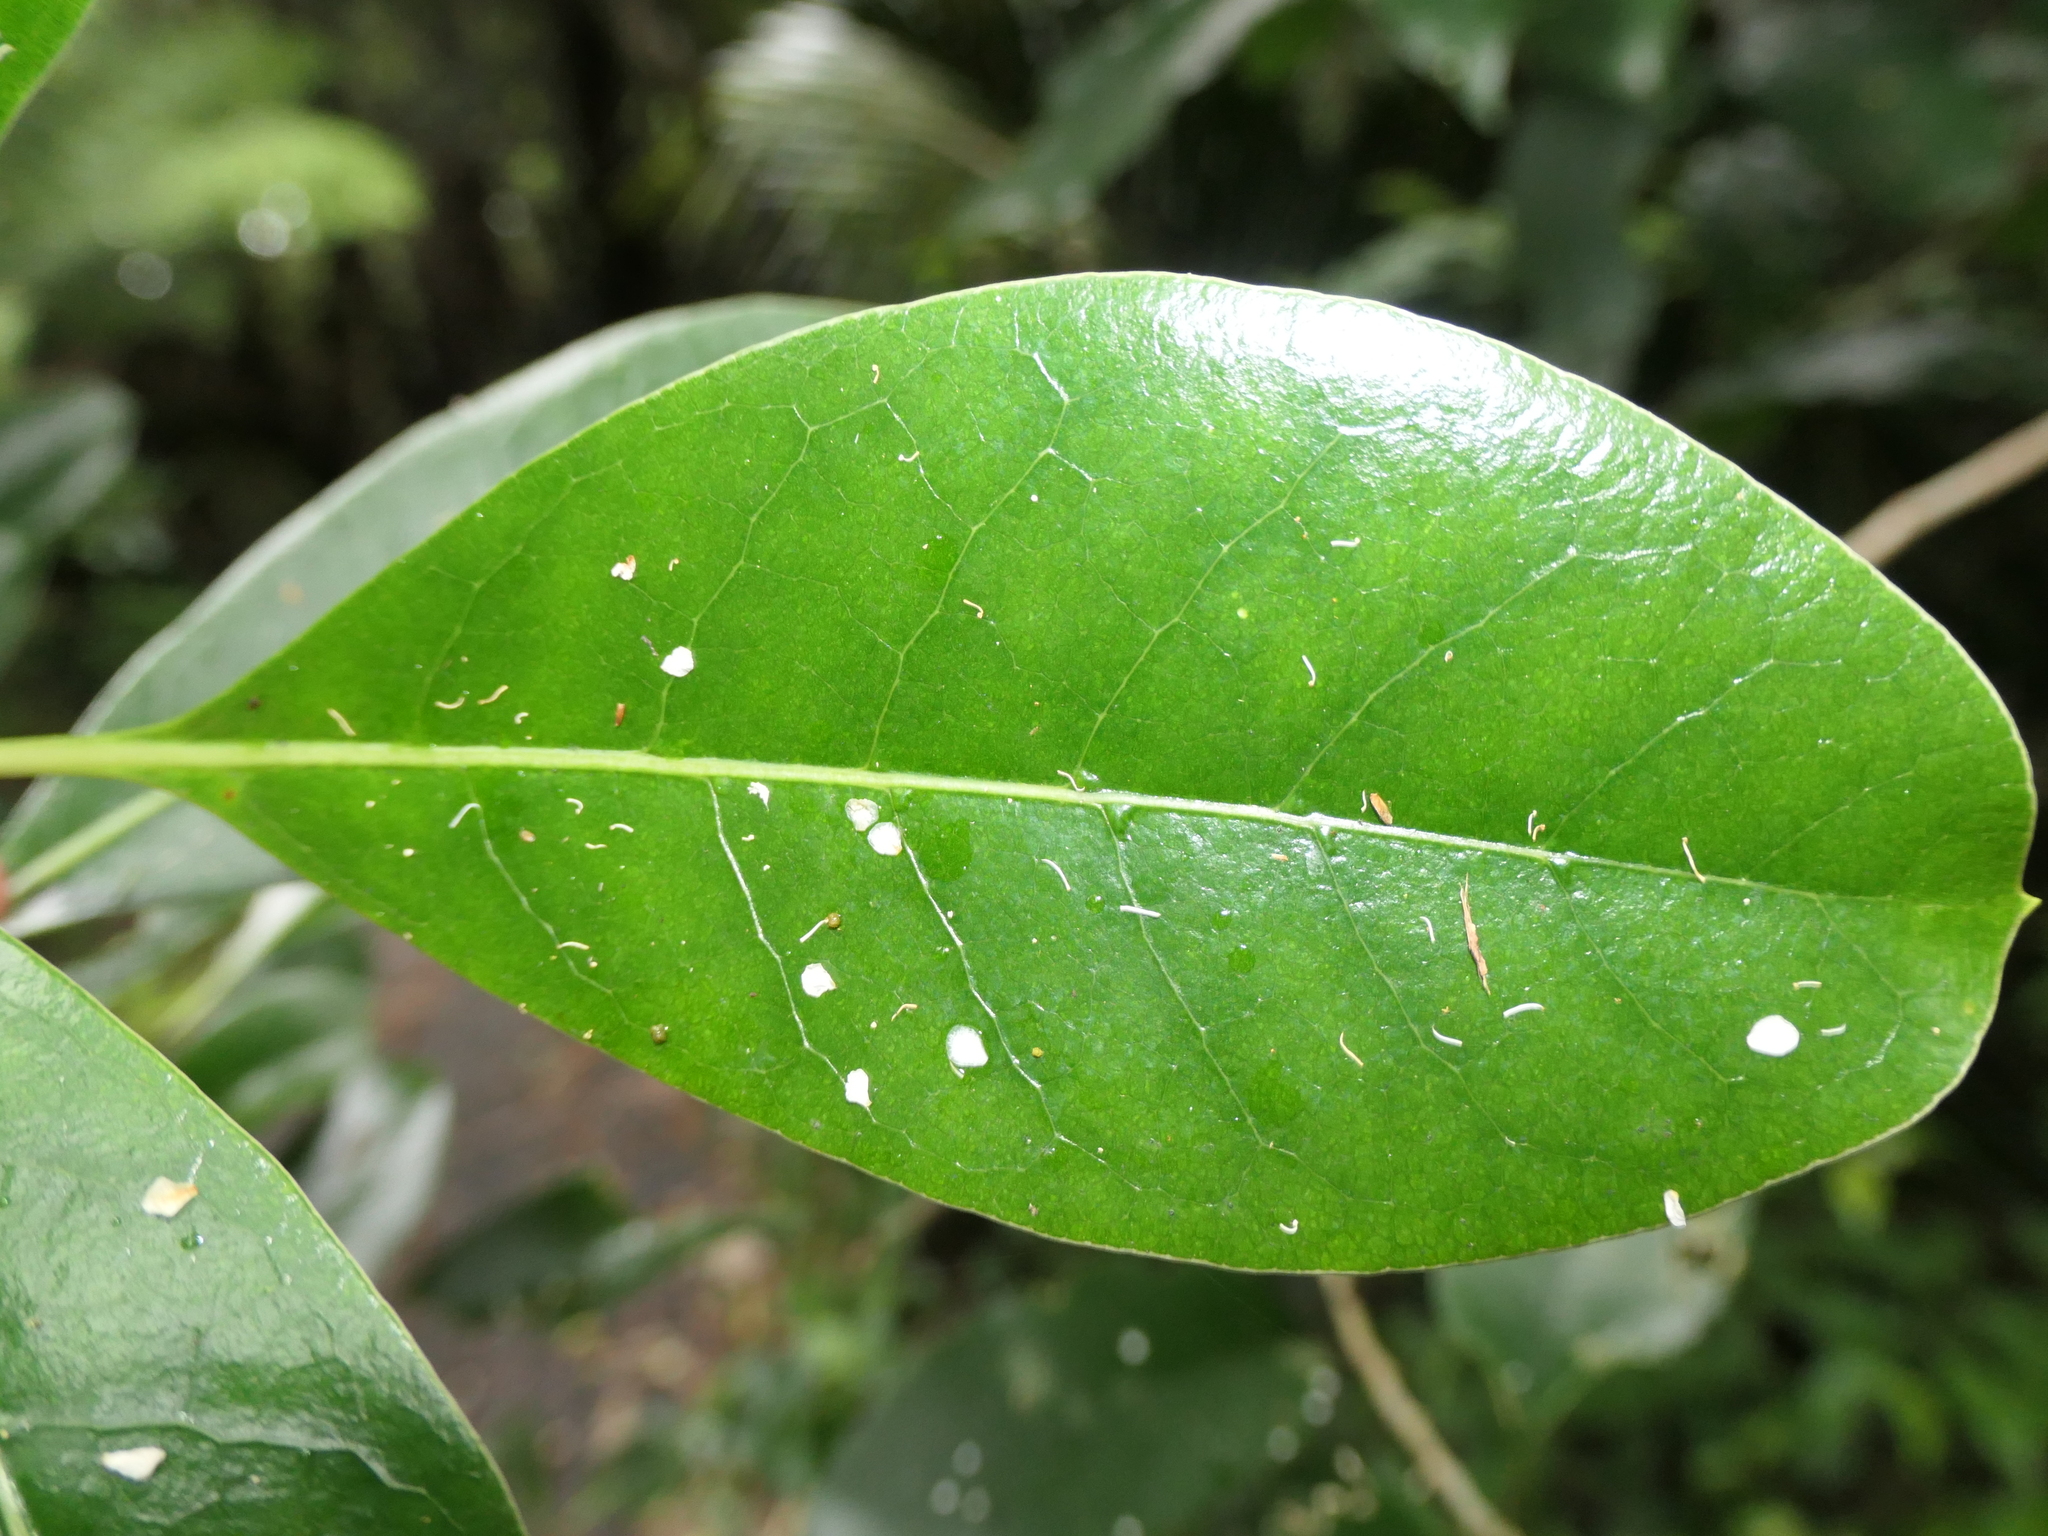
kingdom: Plantae
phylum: Tracheophyta
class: Magnoliopsida
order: Gentianales
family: Rubiaceae
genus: Coprosma
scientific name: Coprosma lucida
